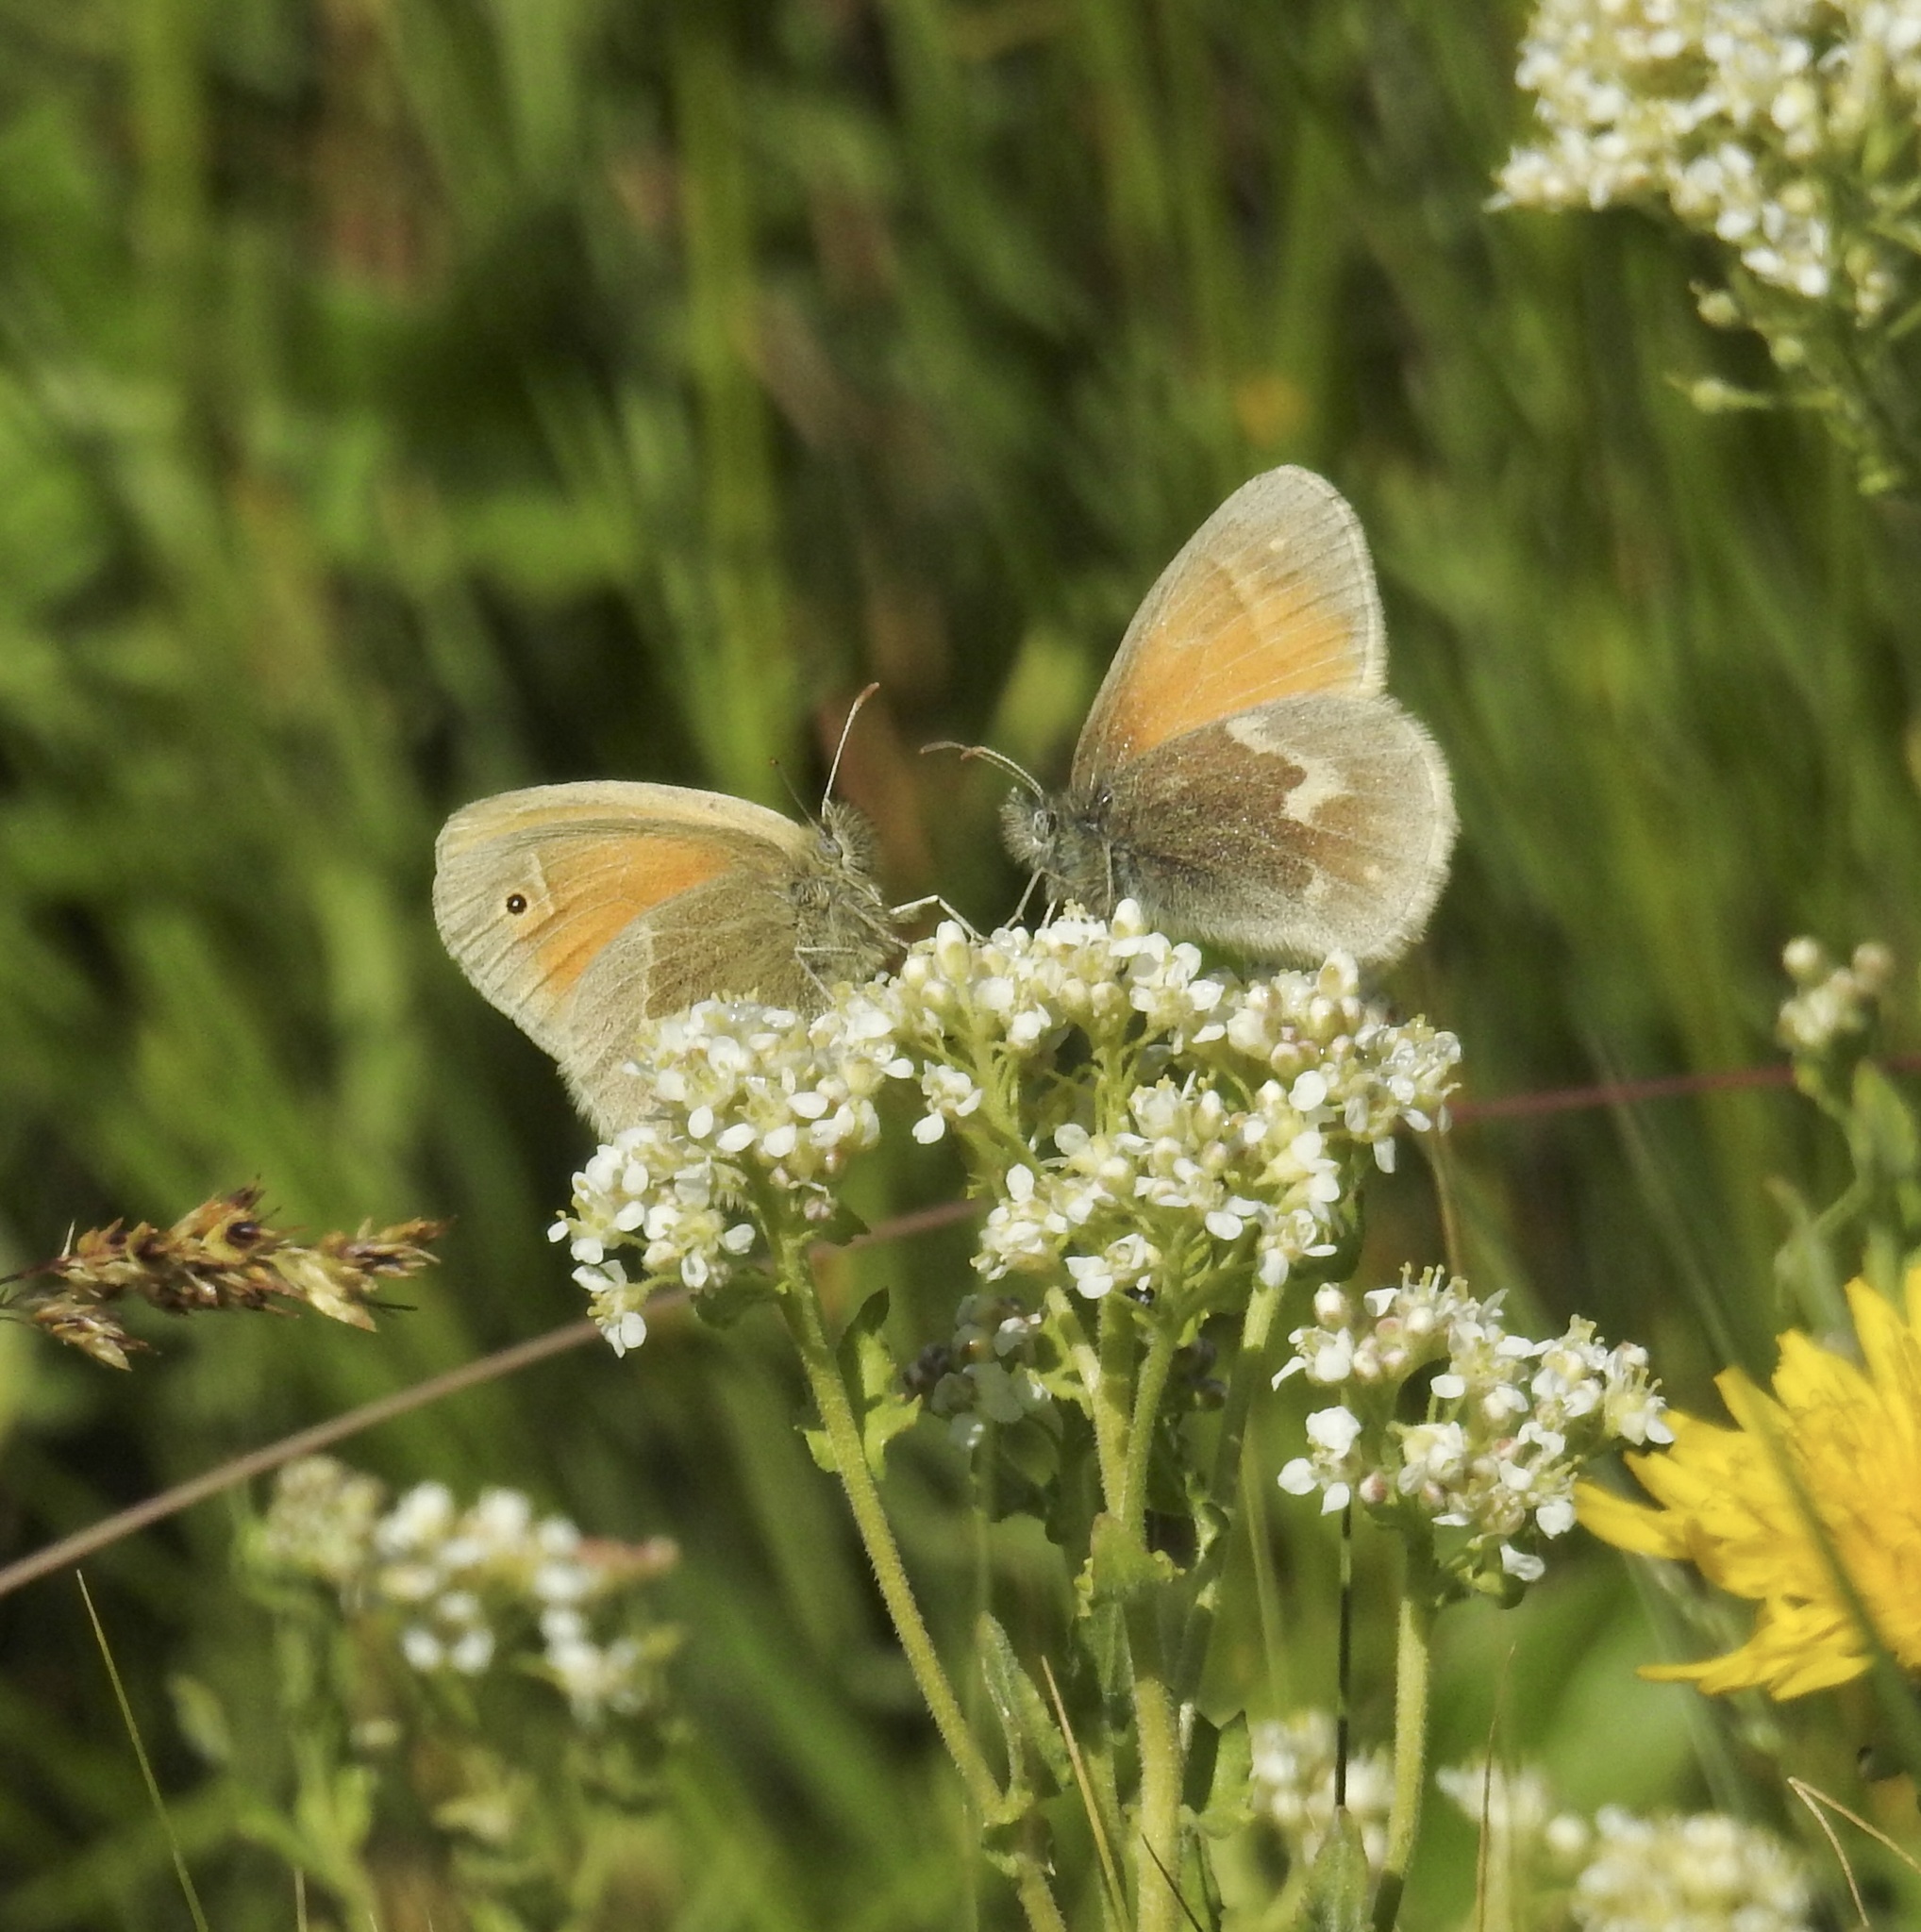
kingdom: Animalia
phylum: Arthropoda
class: Insecta
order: Lepidoptera
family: Nymphalidae
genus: Coenonympha
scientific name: Coenonympha california
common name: Common ringlet
